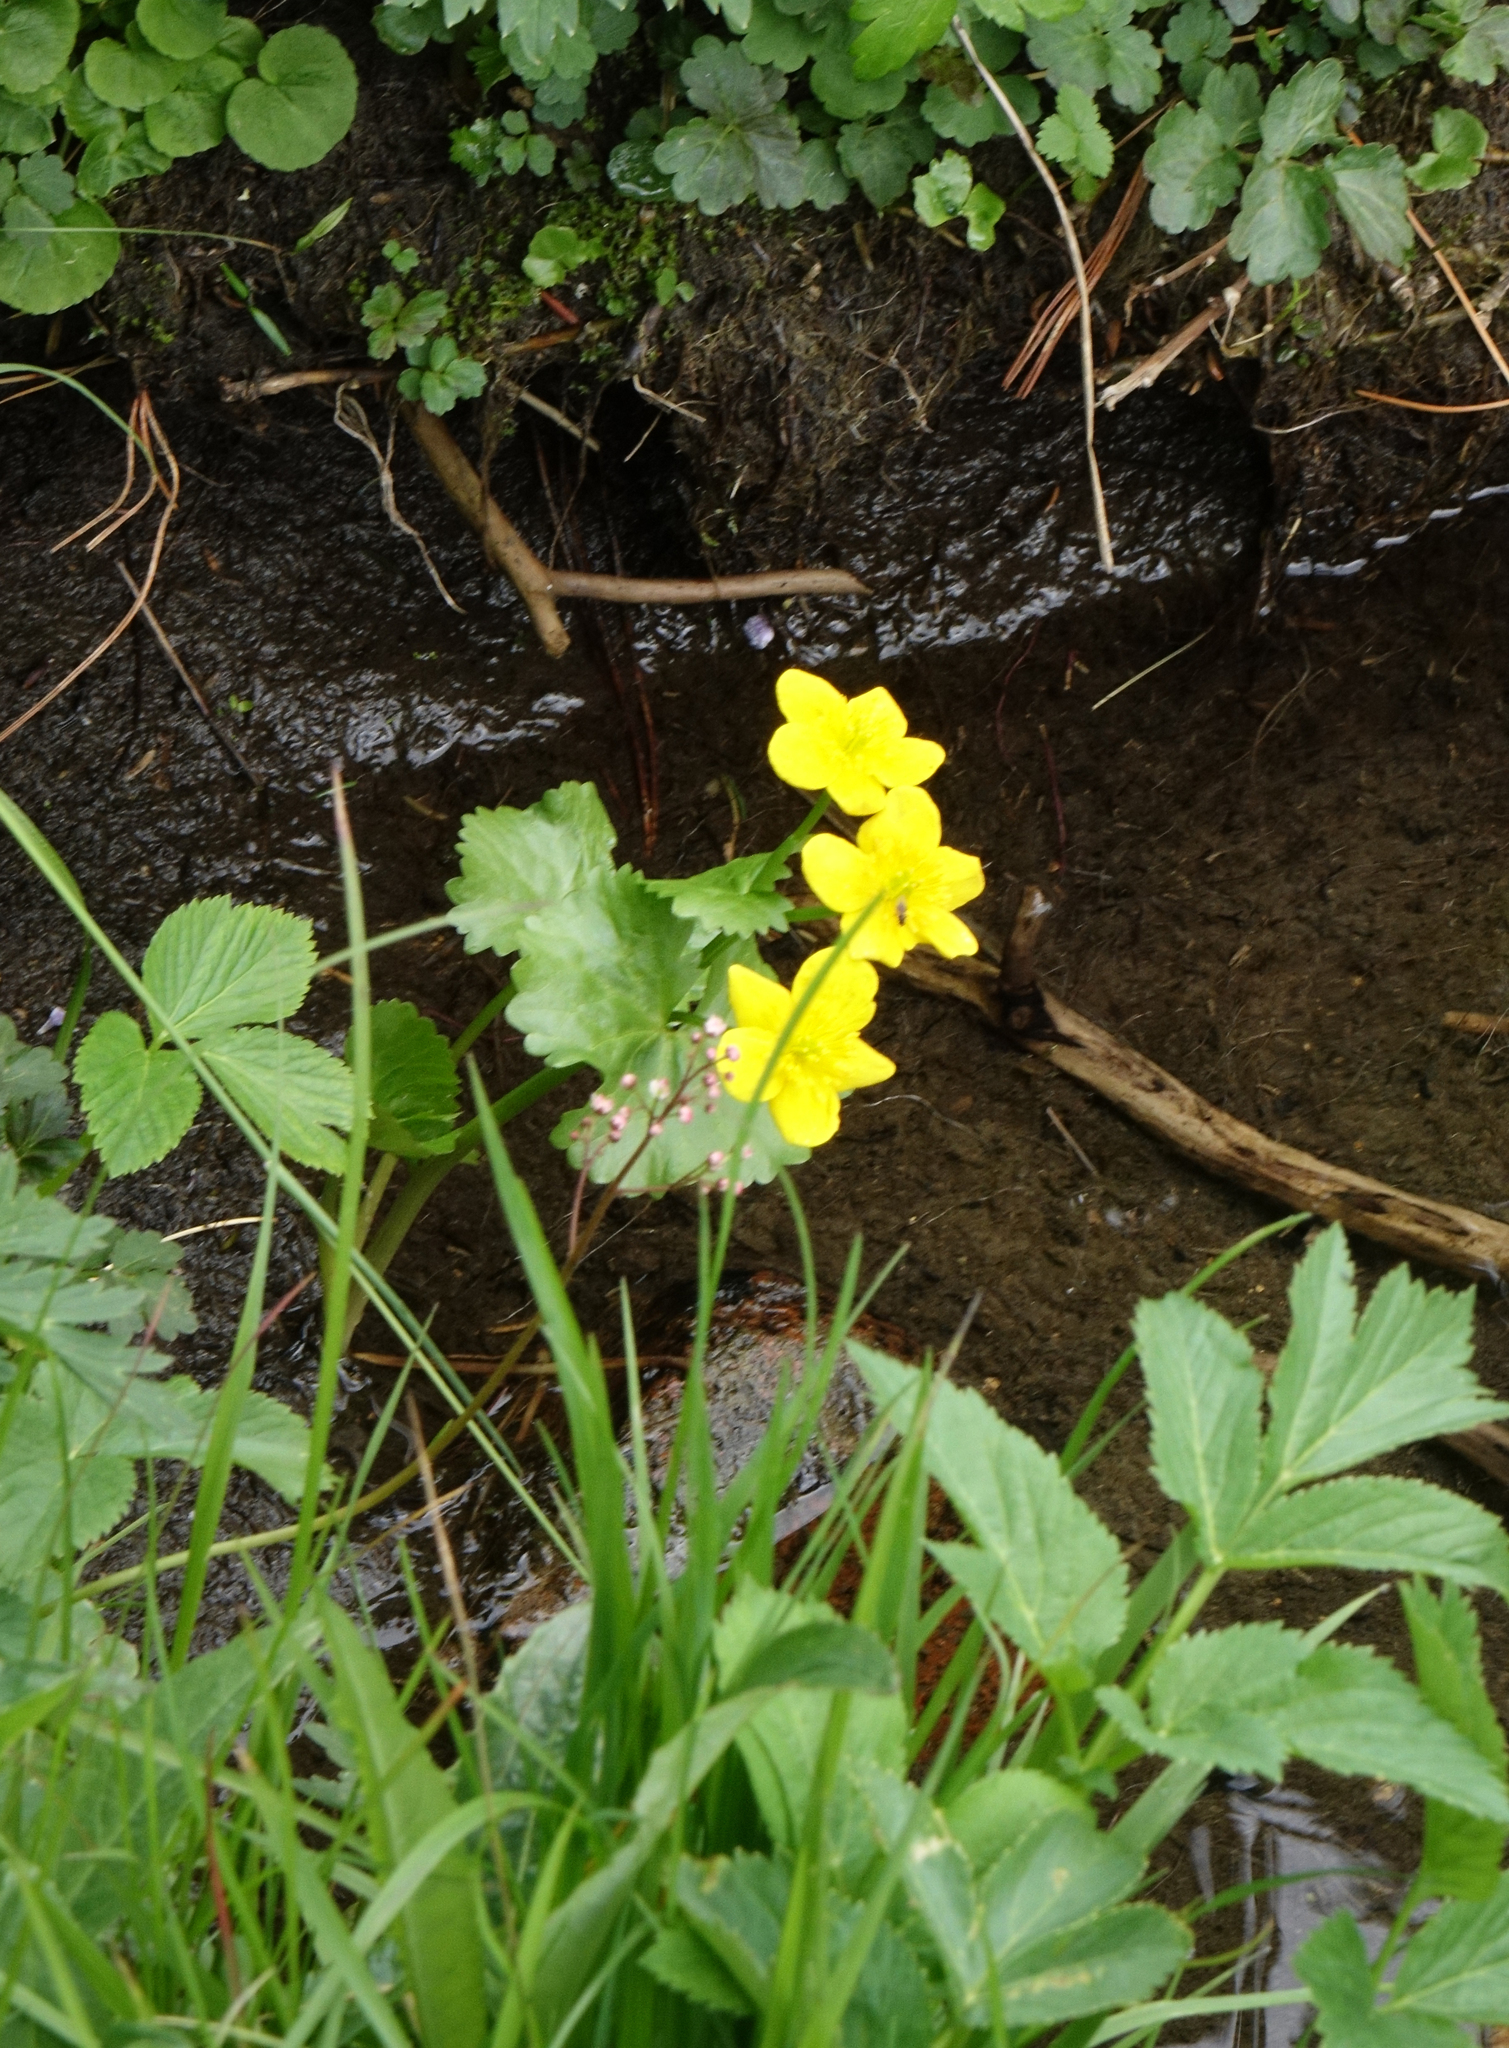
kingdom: Plantae
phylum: Tracheophyta
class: Magnoliopsida
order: Ranunculales
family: Ranunculaceae
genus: Caltha
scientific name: Caltha palustris
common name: Marsh marigold
